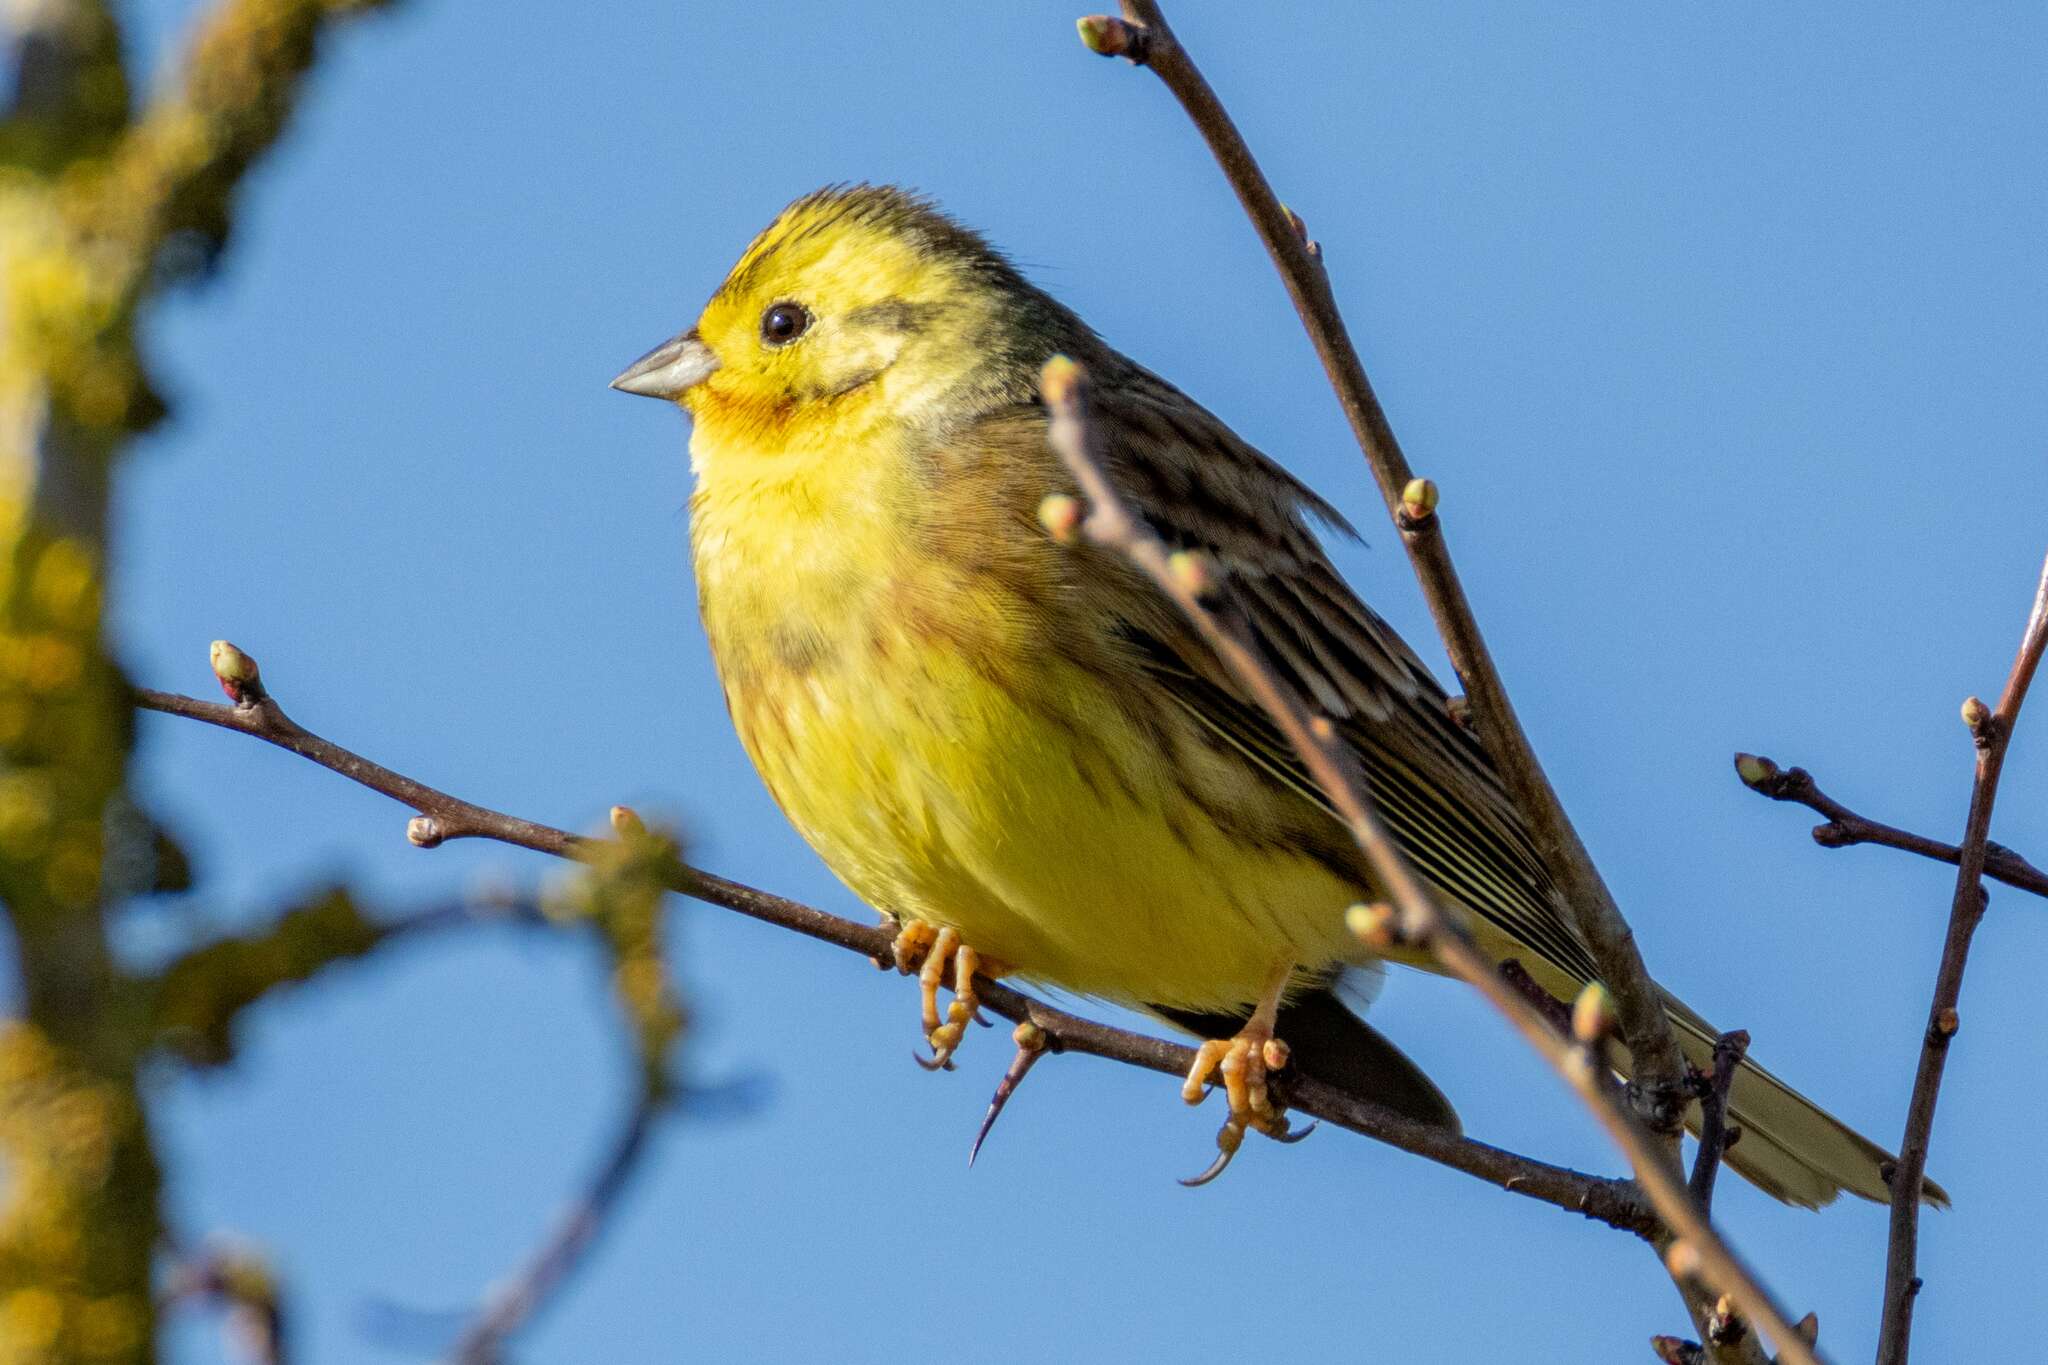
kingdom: Animalia
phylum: Chordata
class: Aves
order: Passeriformes
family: Emberizidae
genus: Emberiza
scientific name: Emberiza citrinella
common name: Yellowhammer
